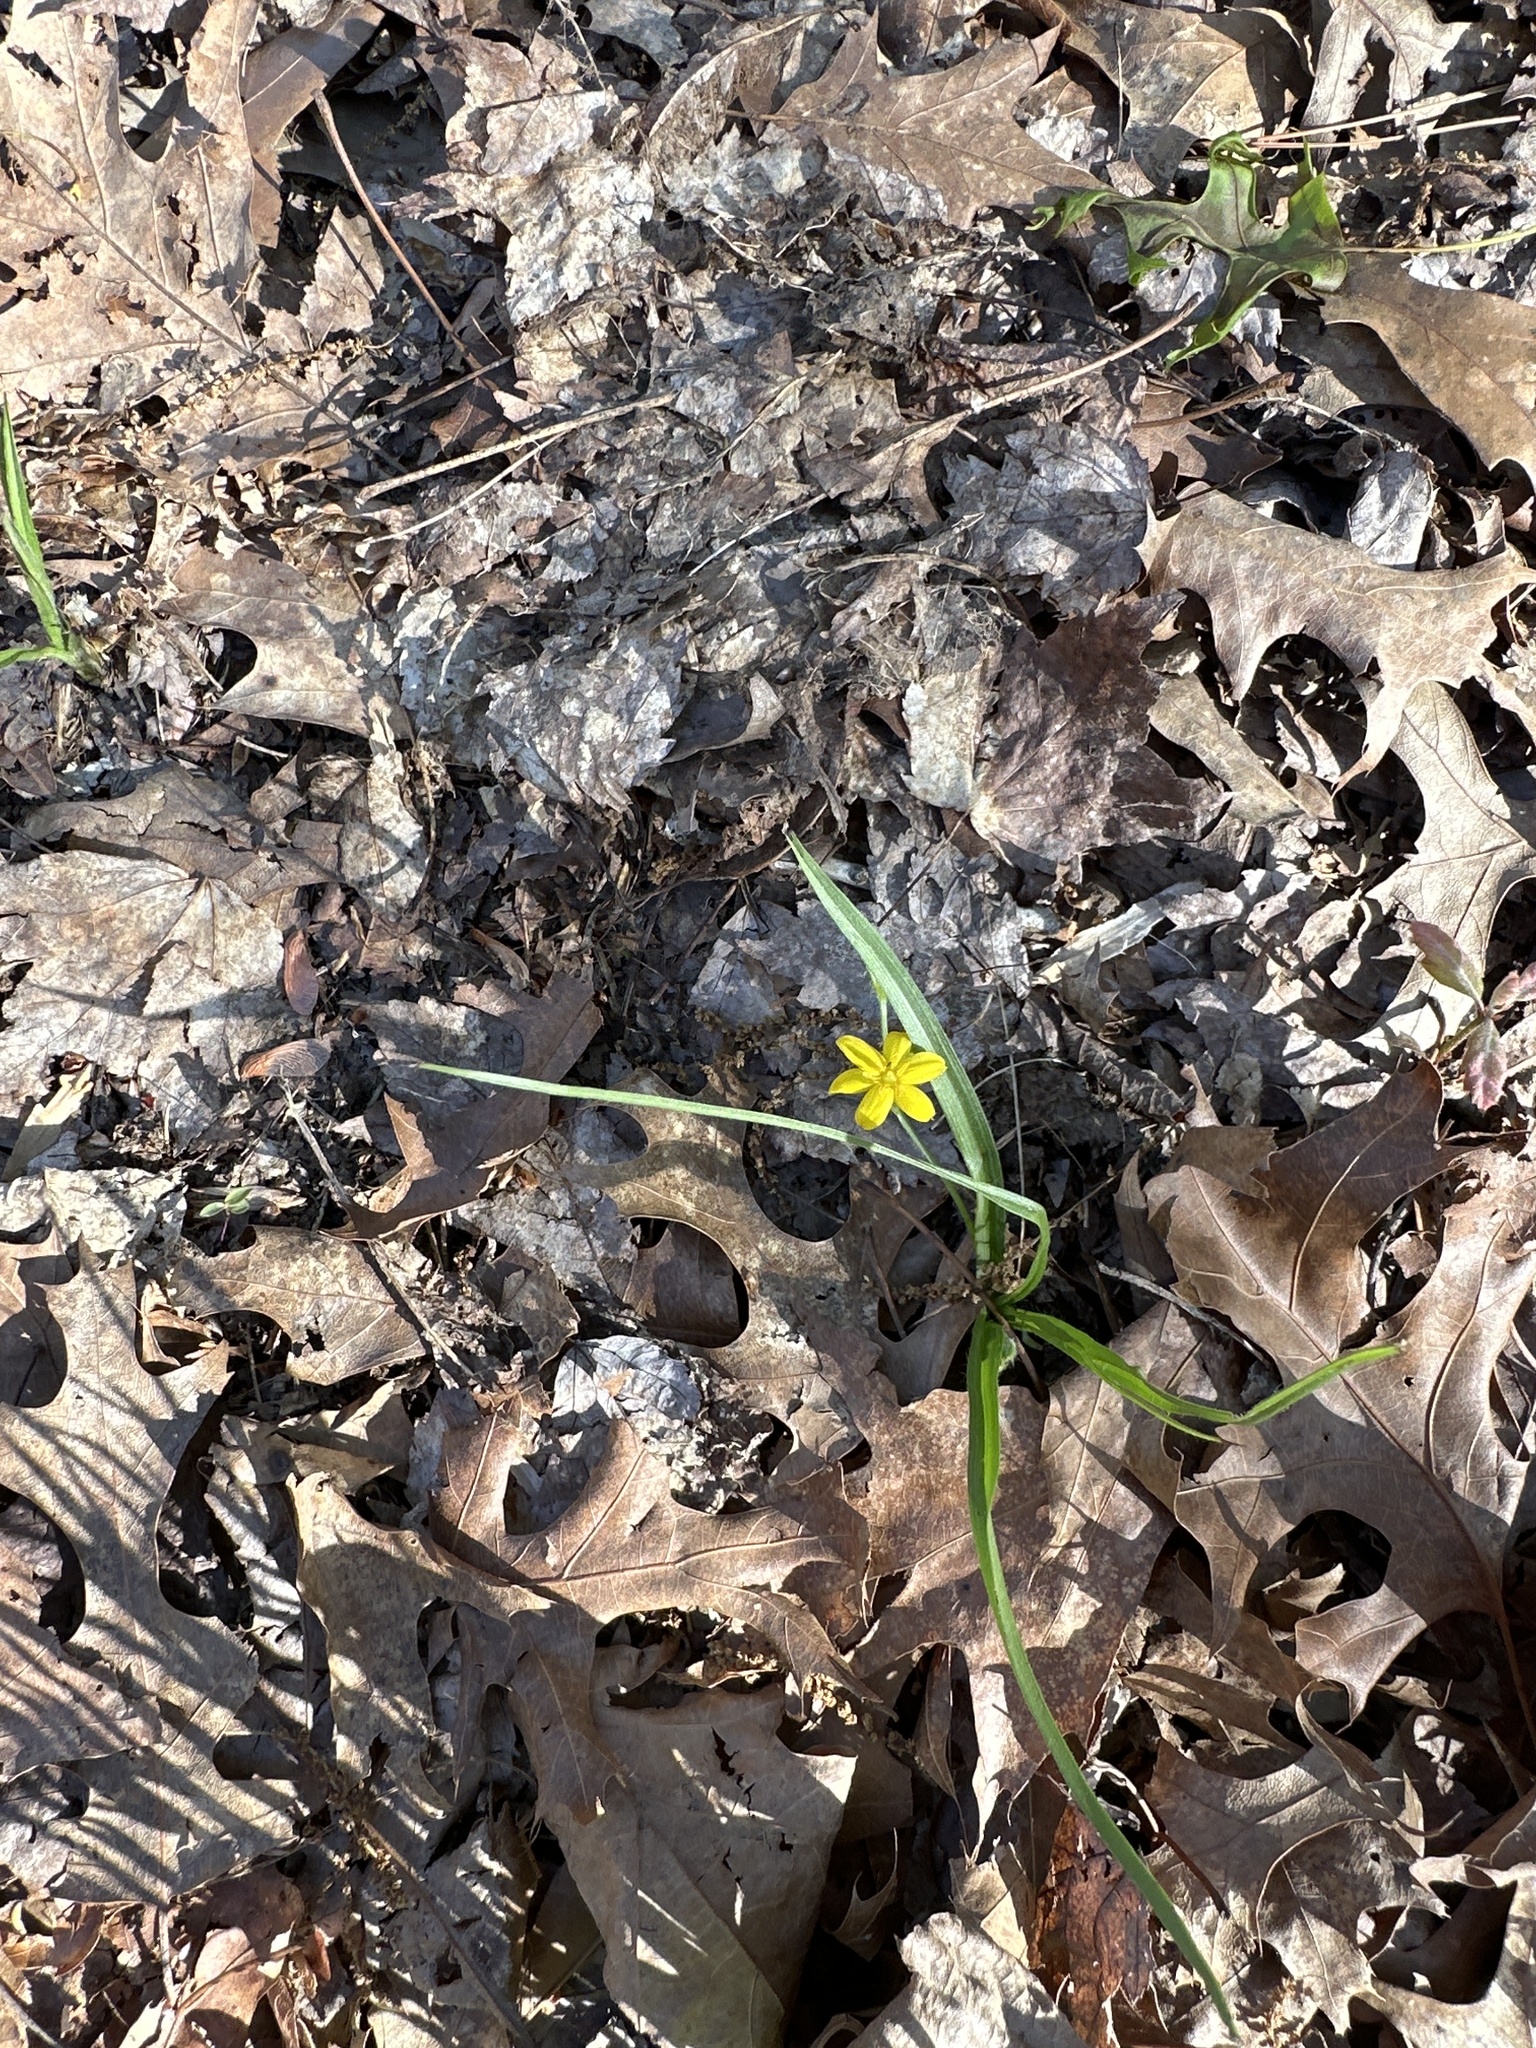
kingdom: Plantae
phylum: Tracheophyta
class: Liliopsida
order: Asparagales
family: Hypoxidaceae
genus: Hypoxis
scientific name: Hypoxis hirsuta
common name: Common goldstar
